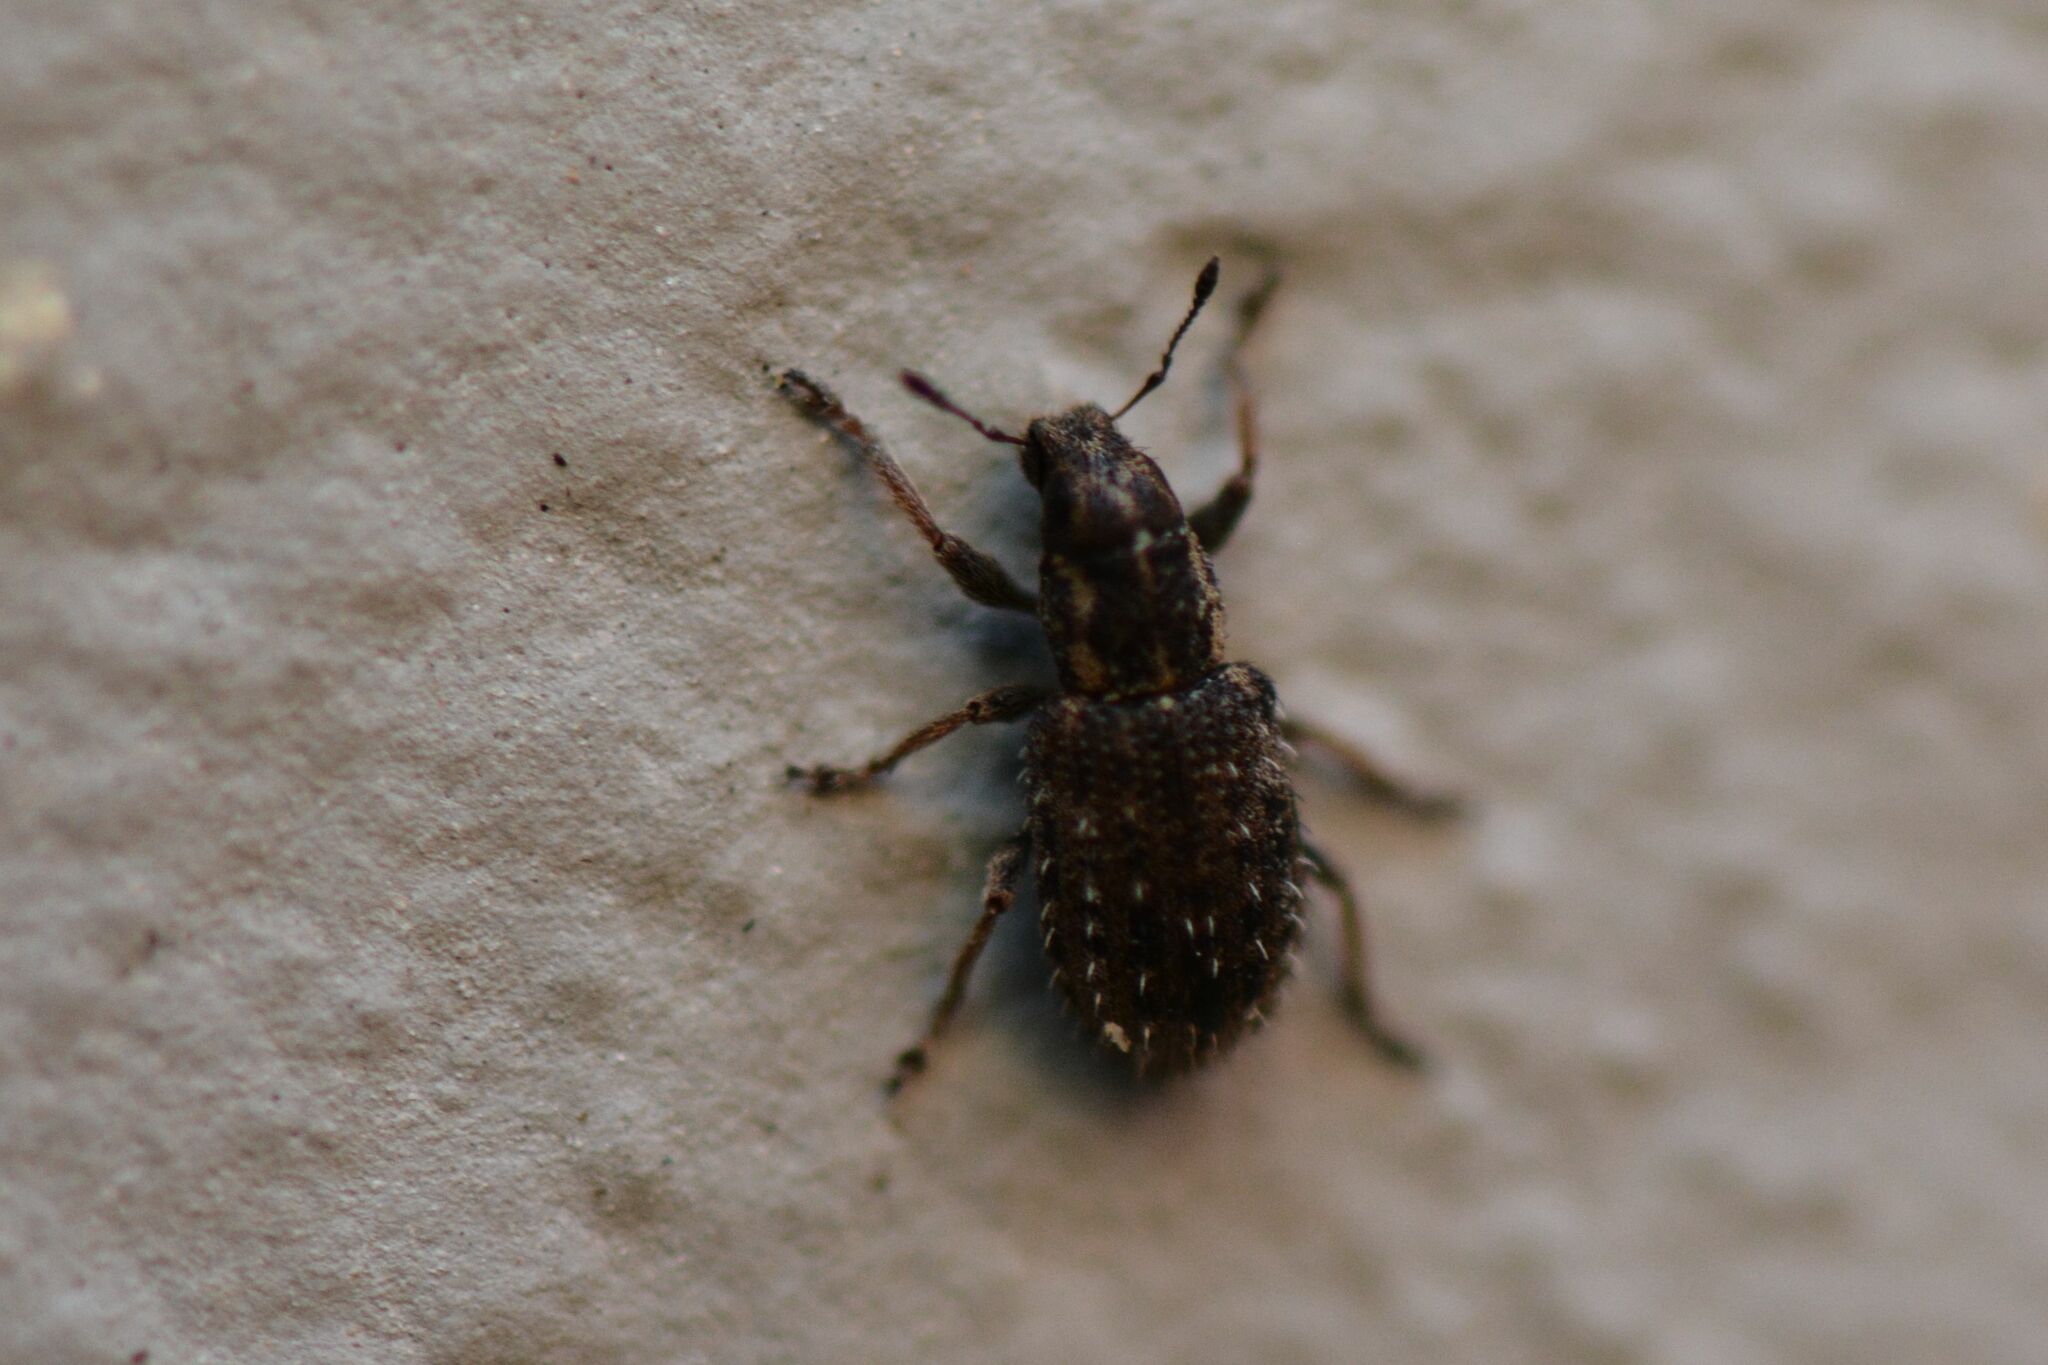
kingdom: Animalia
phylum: Arthropoda
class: Insecta
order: Coleoptera
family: Curculionidae
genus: Sitona
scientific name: Sitona hispidulus
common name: Clover weevil
